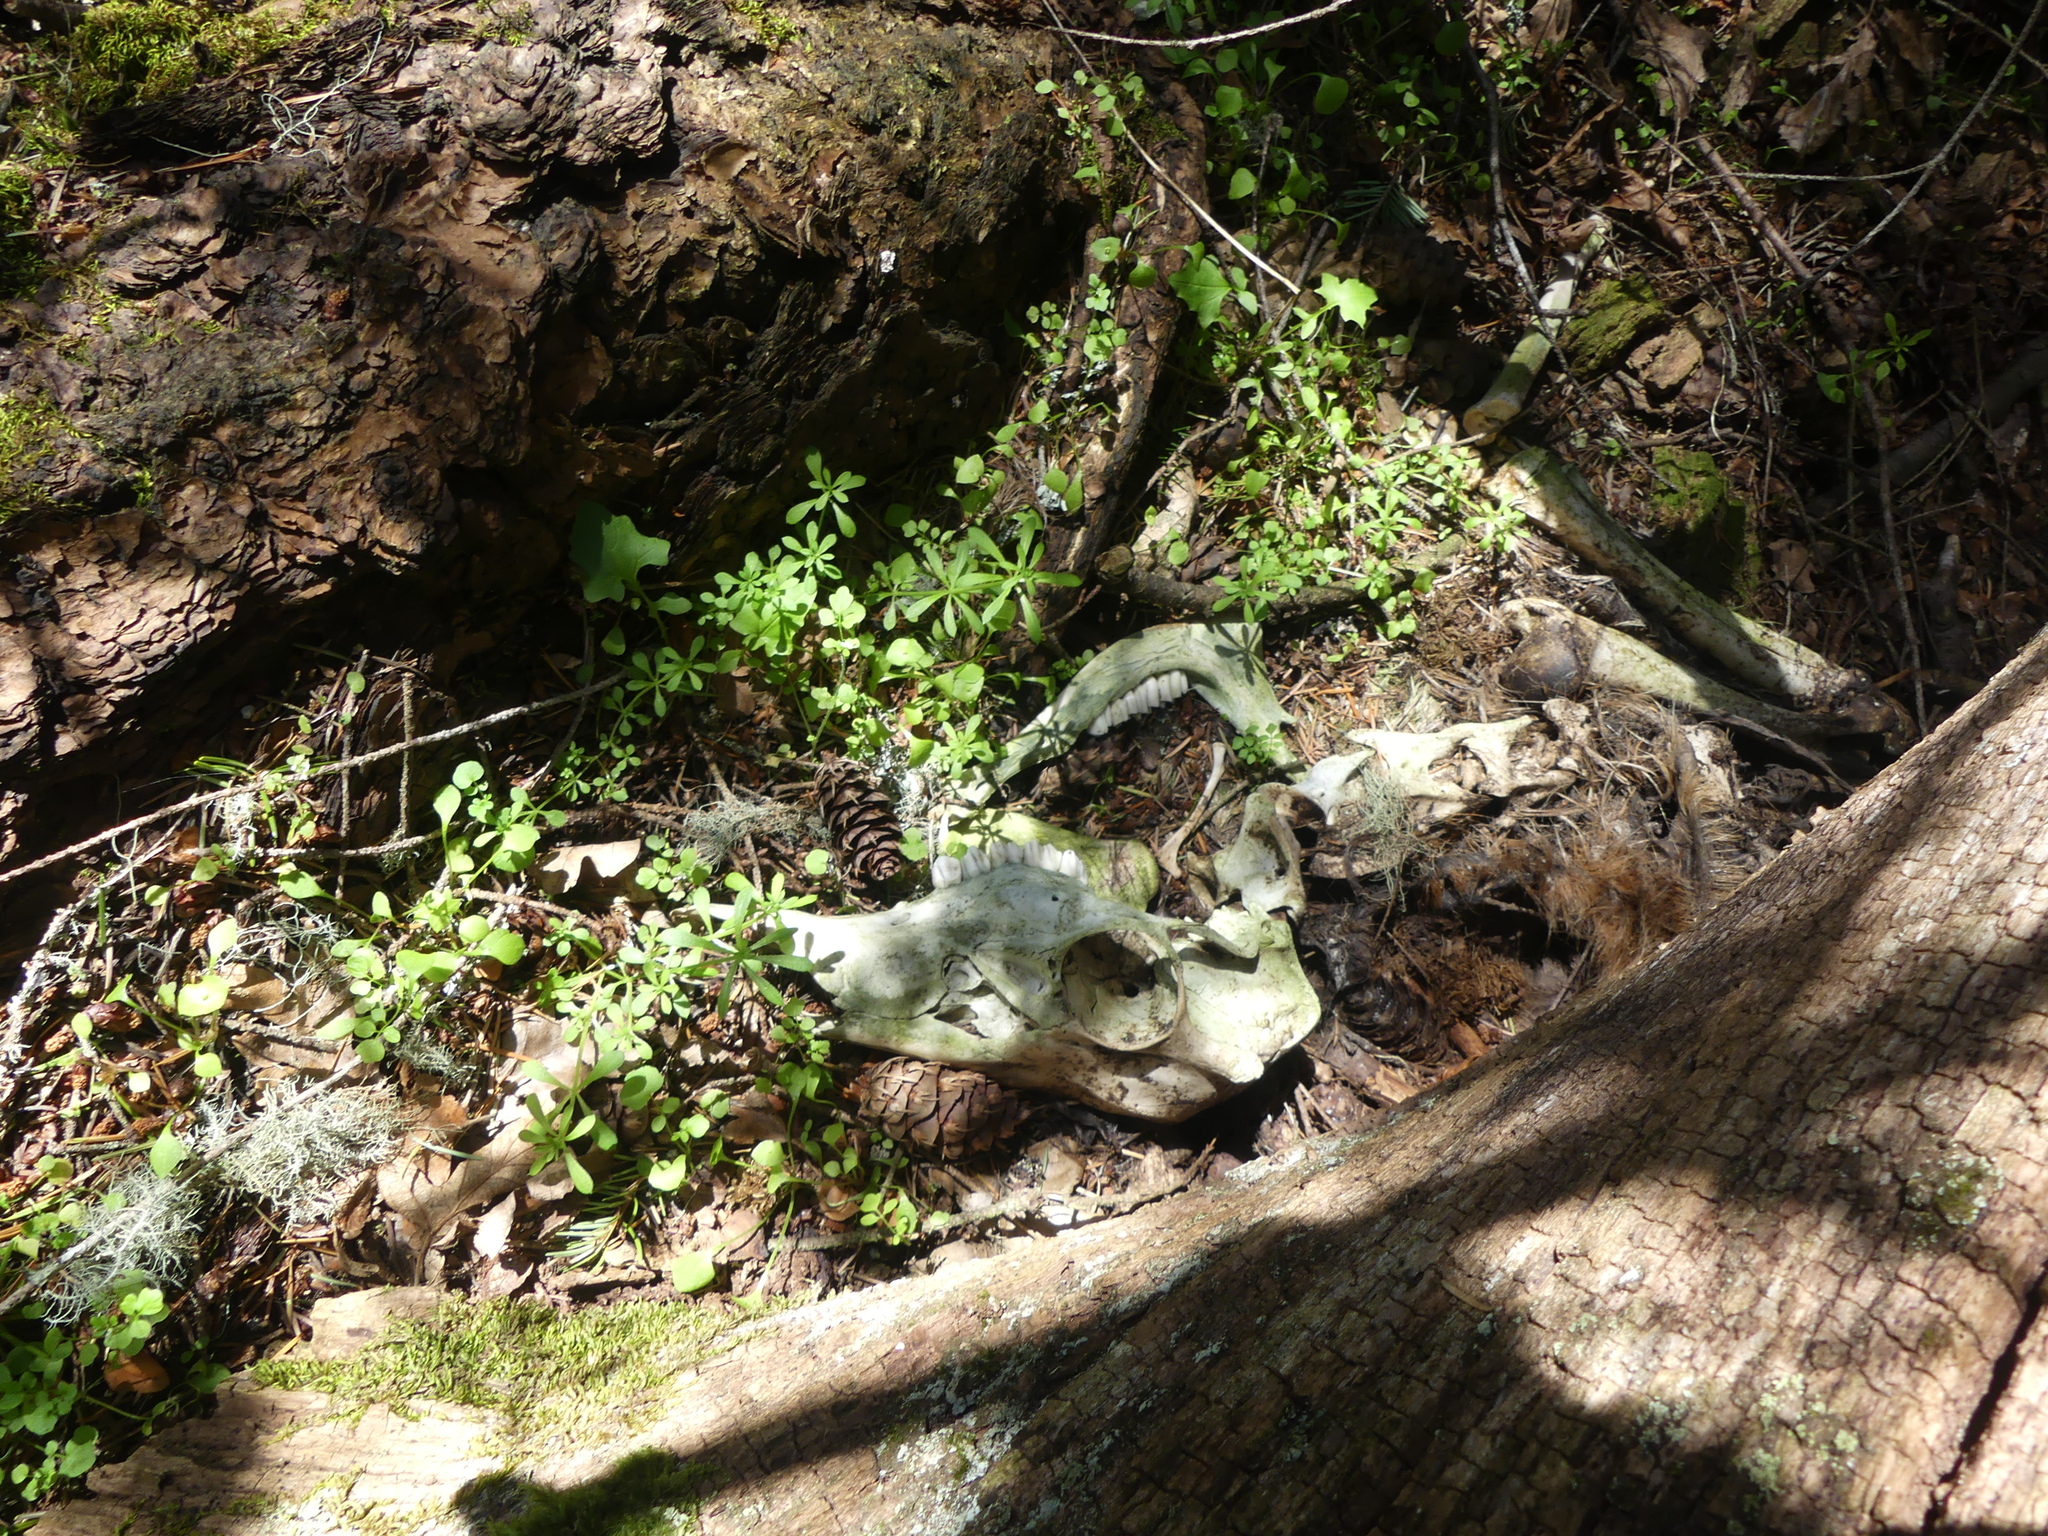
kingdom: Animalia
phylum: Chordata
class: Mammalia
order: Artiodactyla
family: Cervidae
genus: Odocoileus
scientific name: Odocoileus hemionus
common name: Mule deer
